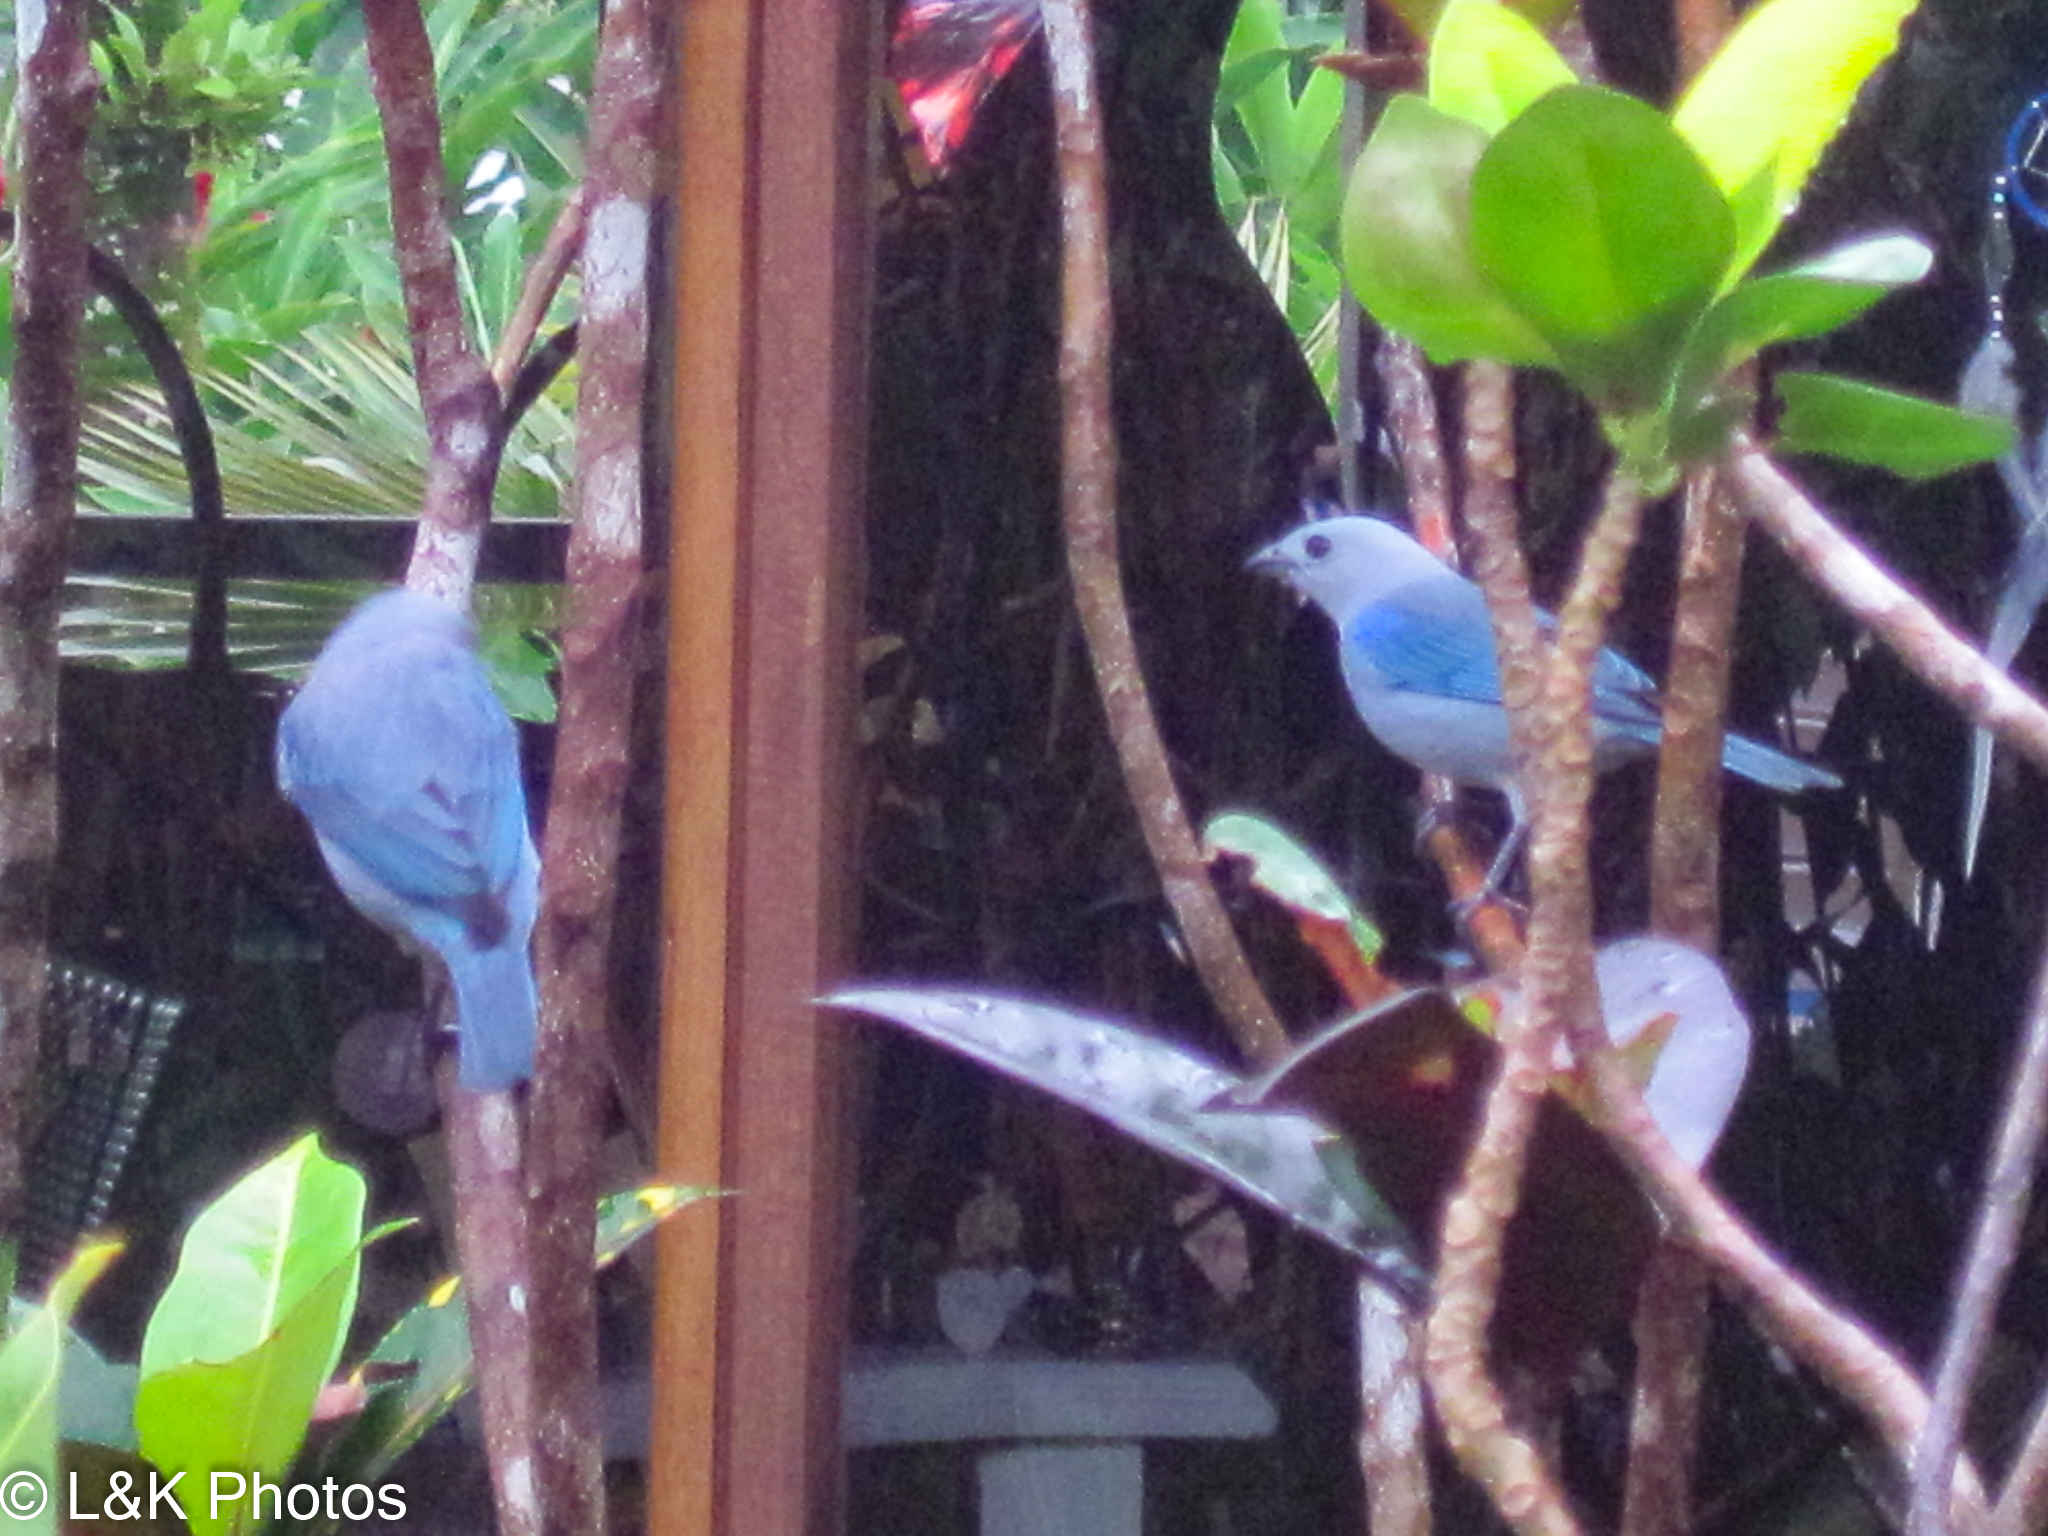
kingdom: Animalia
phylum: Chordata
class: Aves
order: Passeriformes
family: Thraupidae
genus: Thraupis
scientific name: Thraupis episcopus
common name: Blue-grey tanager
